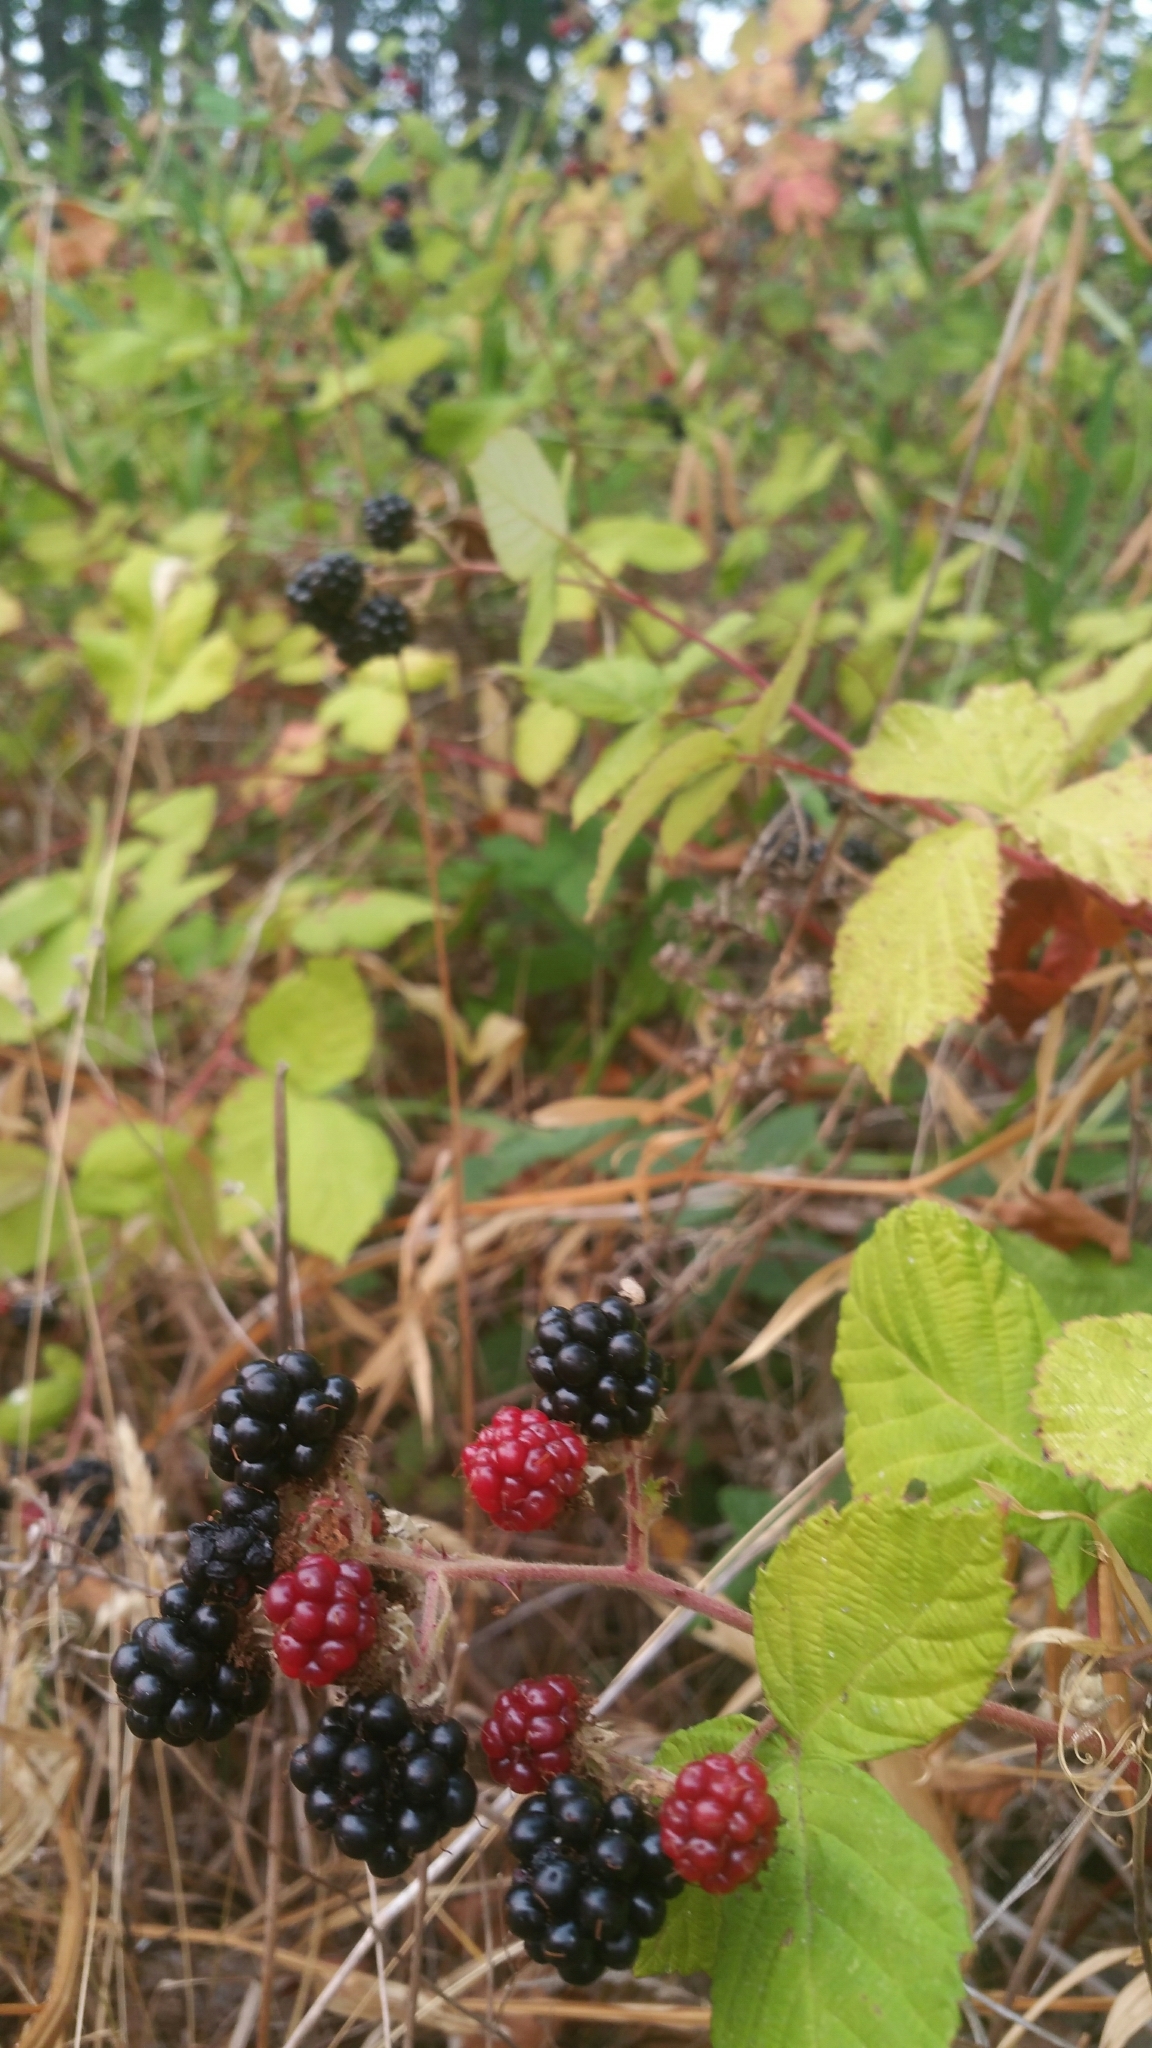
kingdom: Plantae
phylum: Tracheophyta
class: Magnoliopsida
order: Rosales
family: Rosaceae
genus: Rubus
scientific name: Rubus armeniacus
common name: Himalayan blackberry
